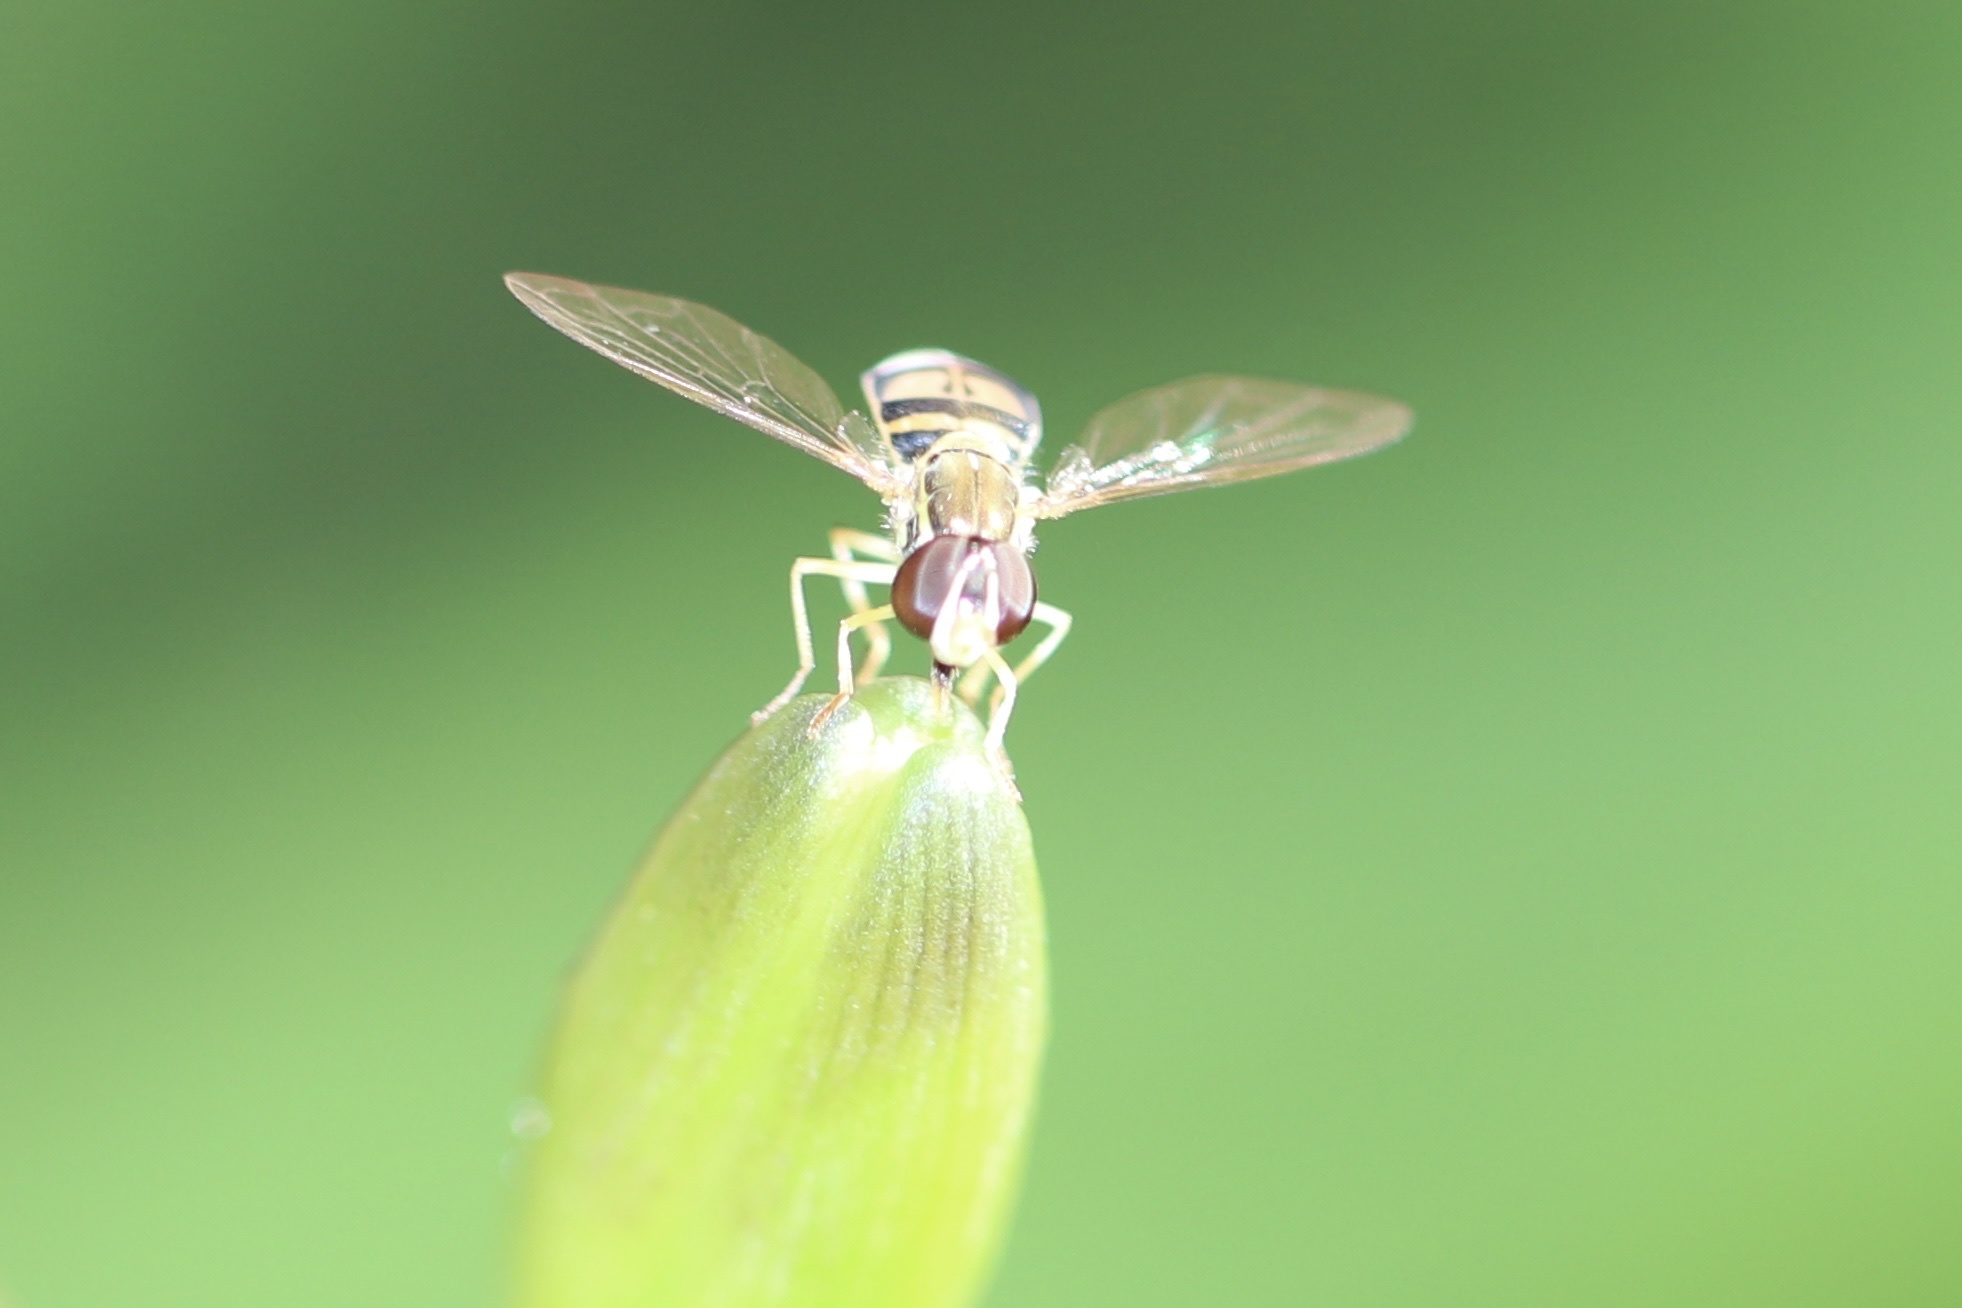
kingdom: Animalia
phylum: Arthropoda
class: Insecta
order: Diptera
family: Syrphidae
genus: Toxomerus
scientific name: Toxomerus marginatus
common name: Syrphid fly
